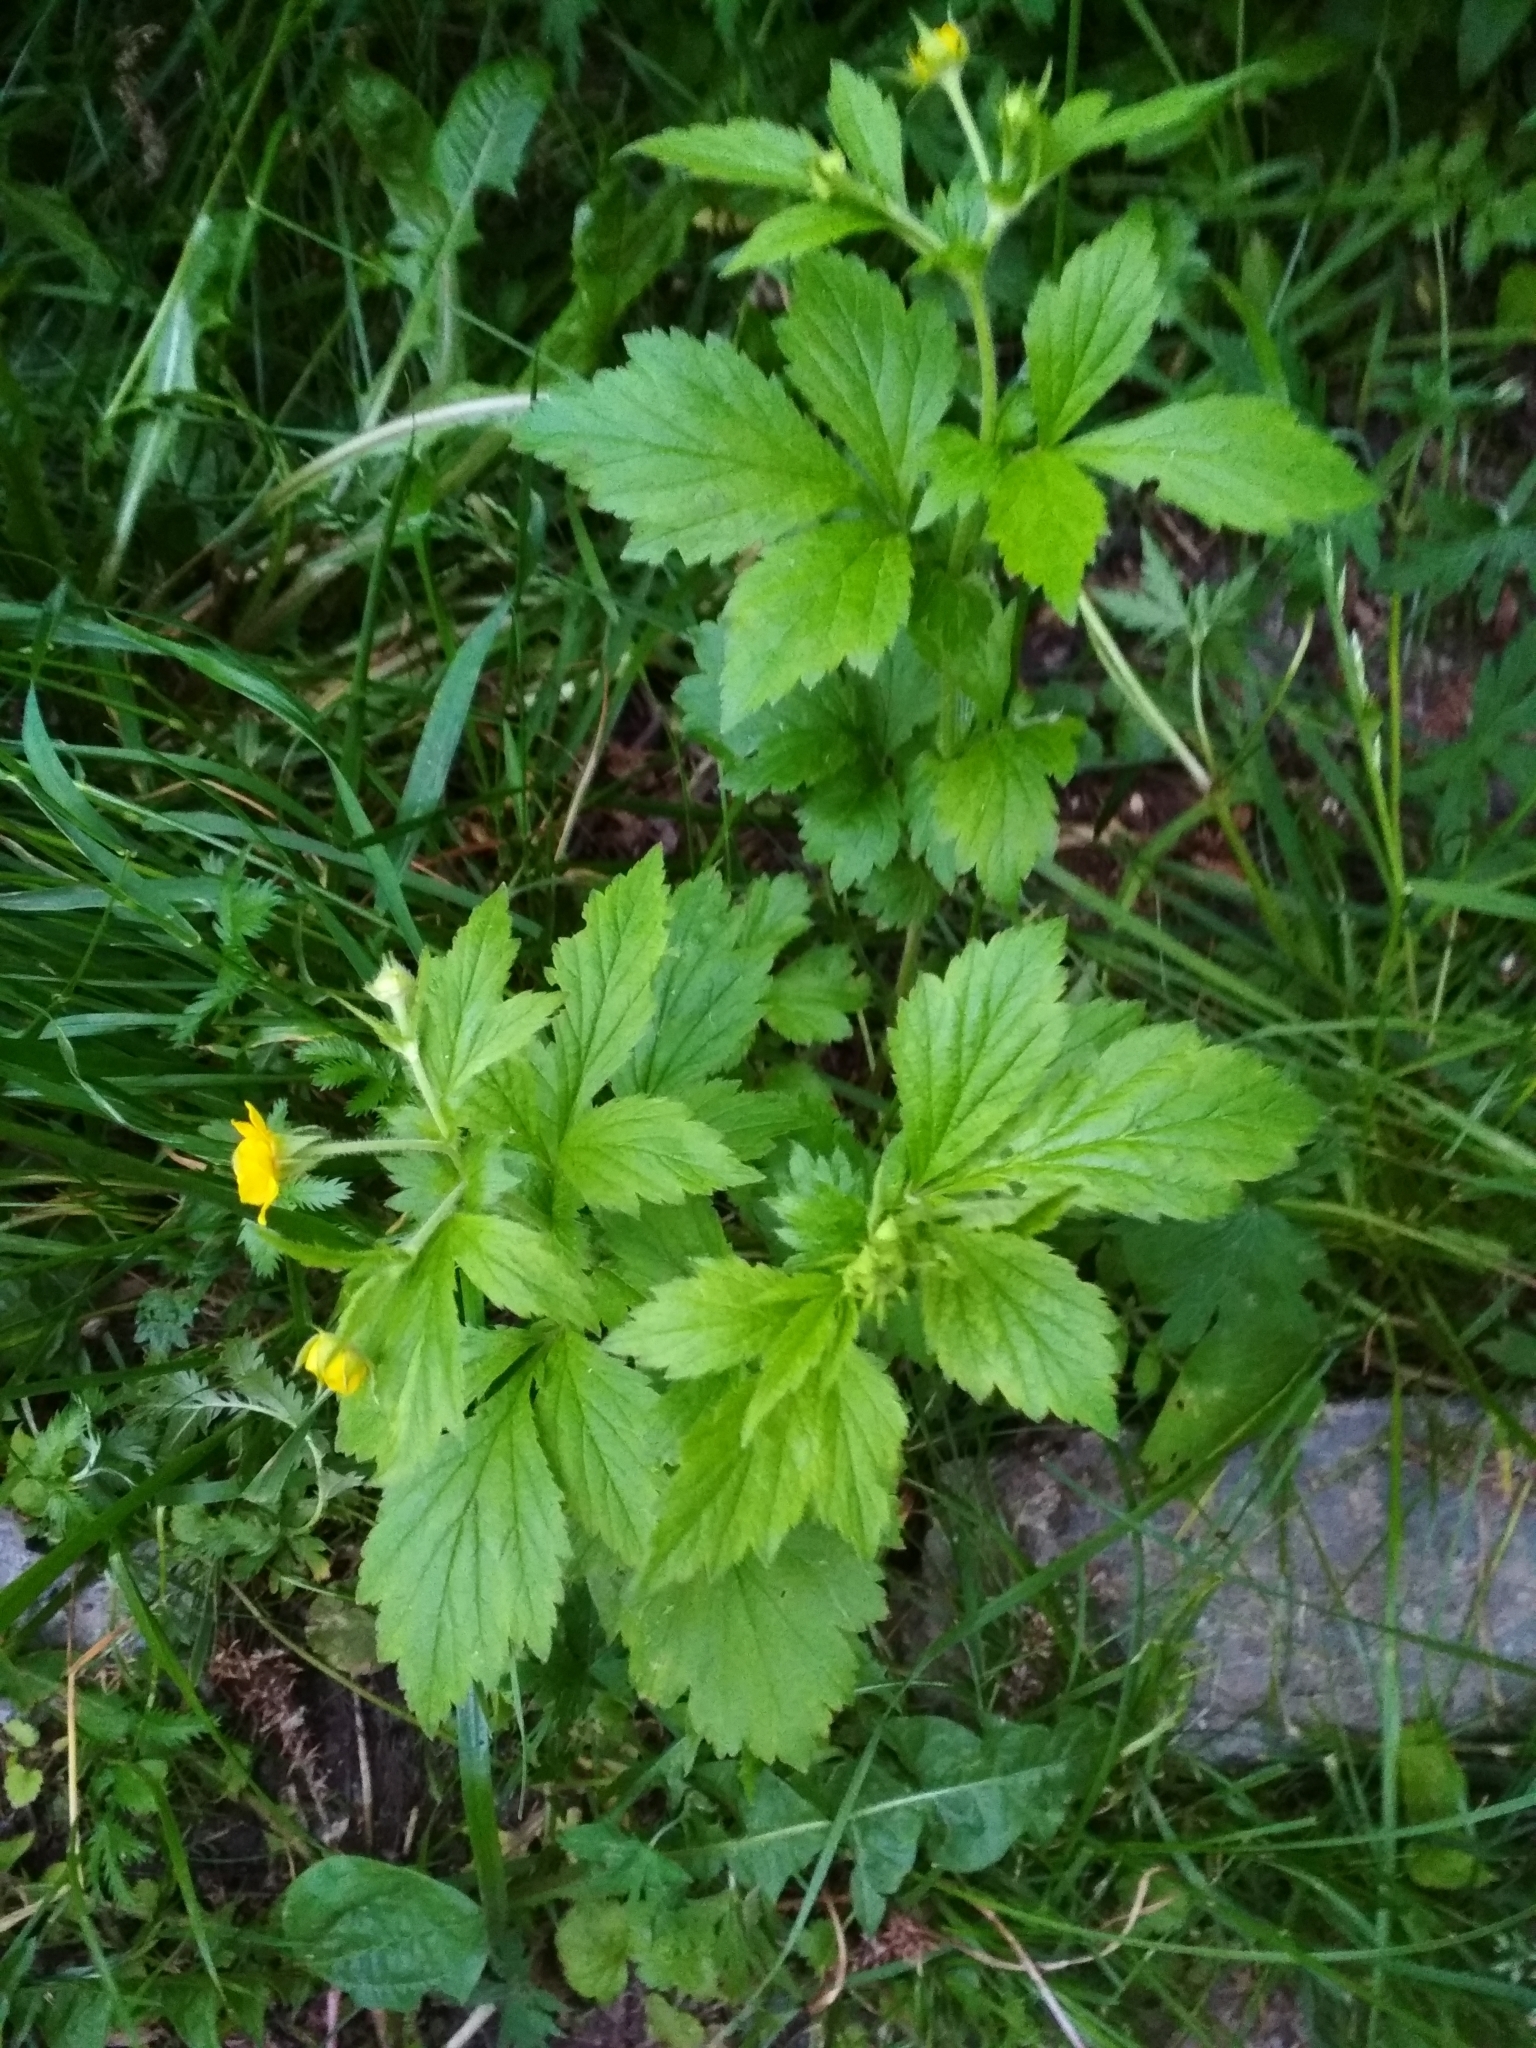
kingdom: Plantae
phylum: Tracheophyta
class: Magnoliopsida
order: Rosales
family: Rosaceae
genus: Geum
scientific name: Geum aleppicum
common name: Yellow avens
